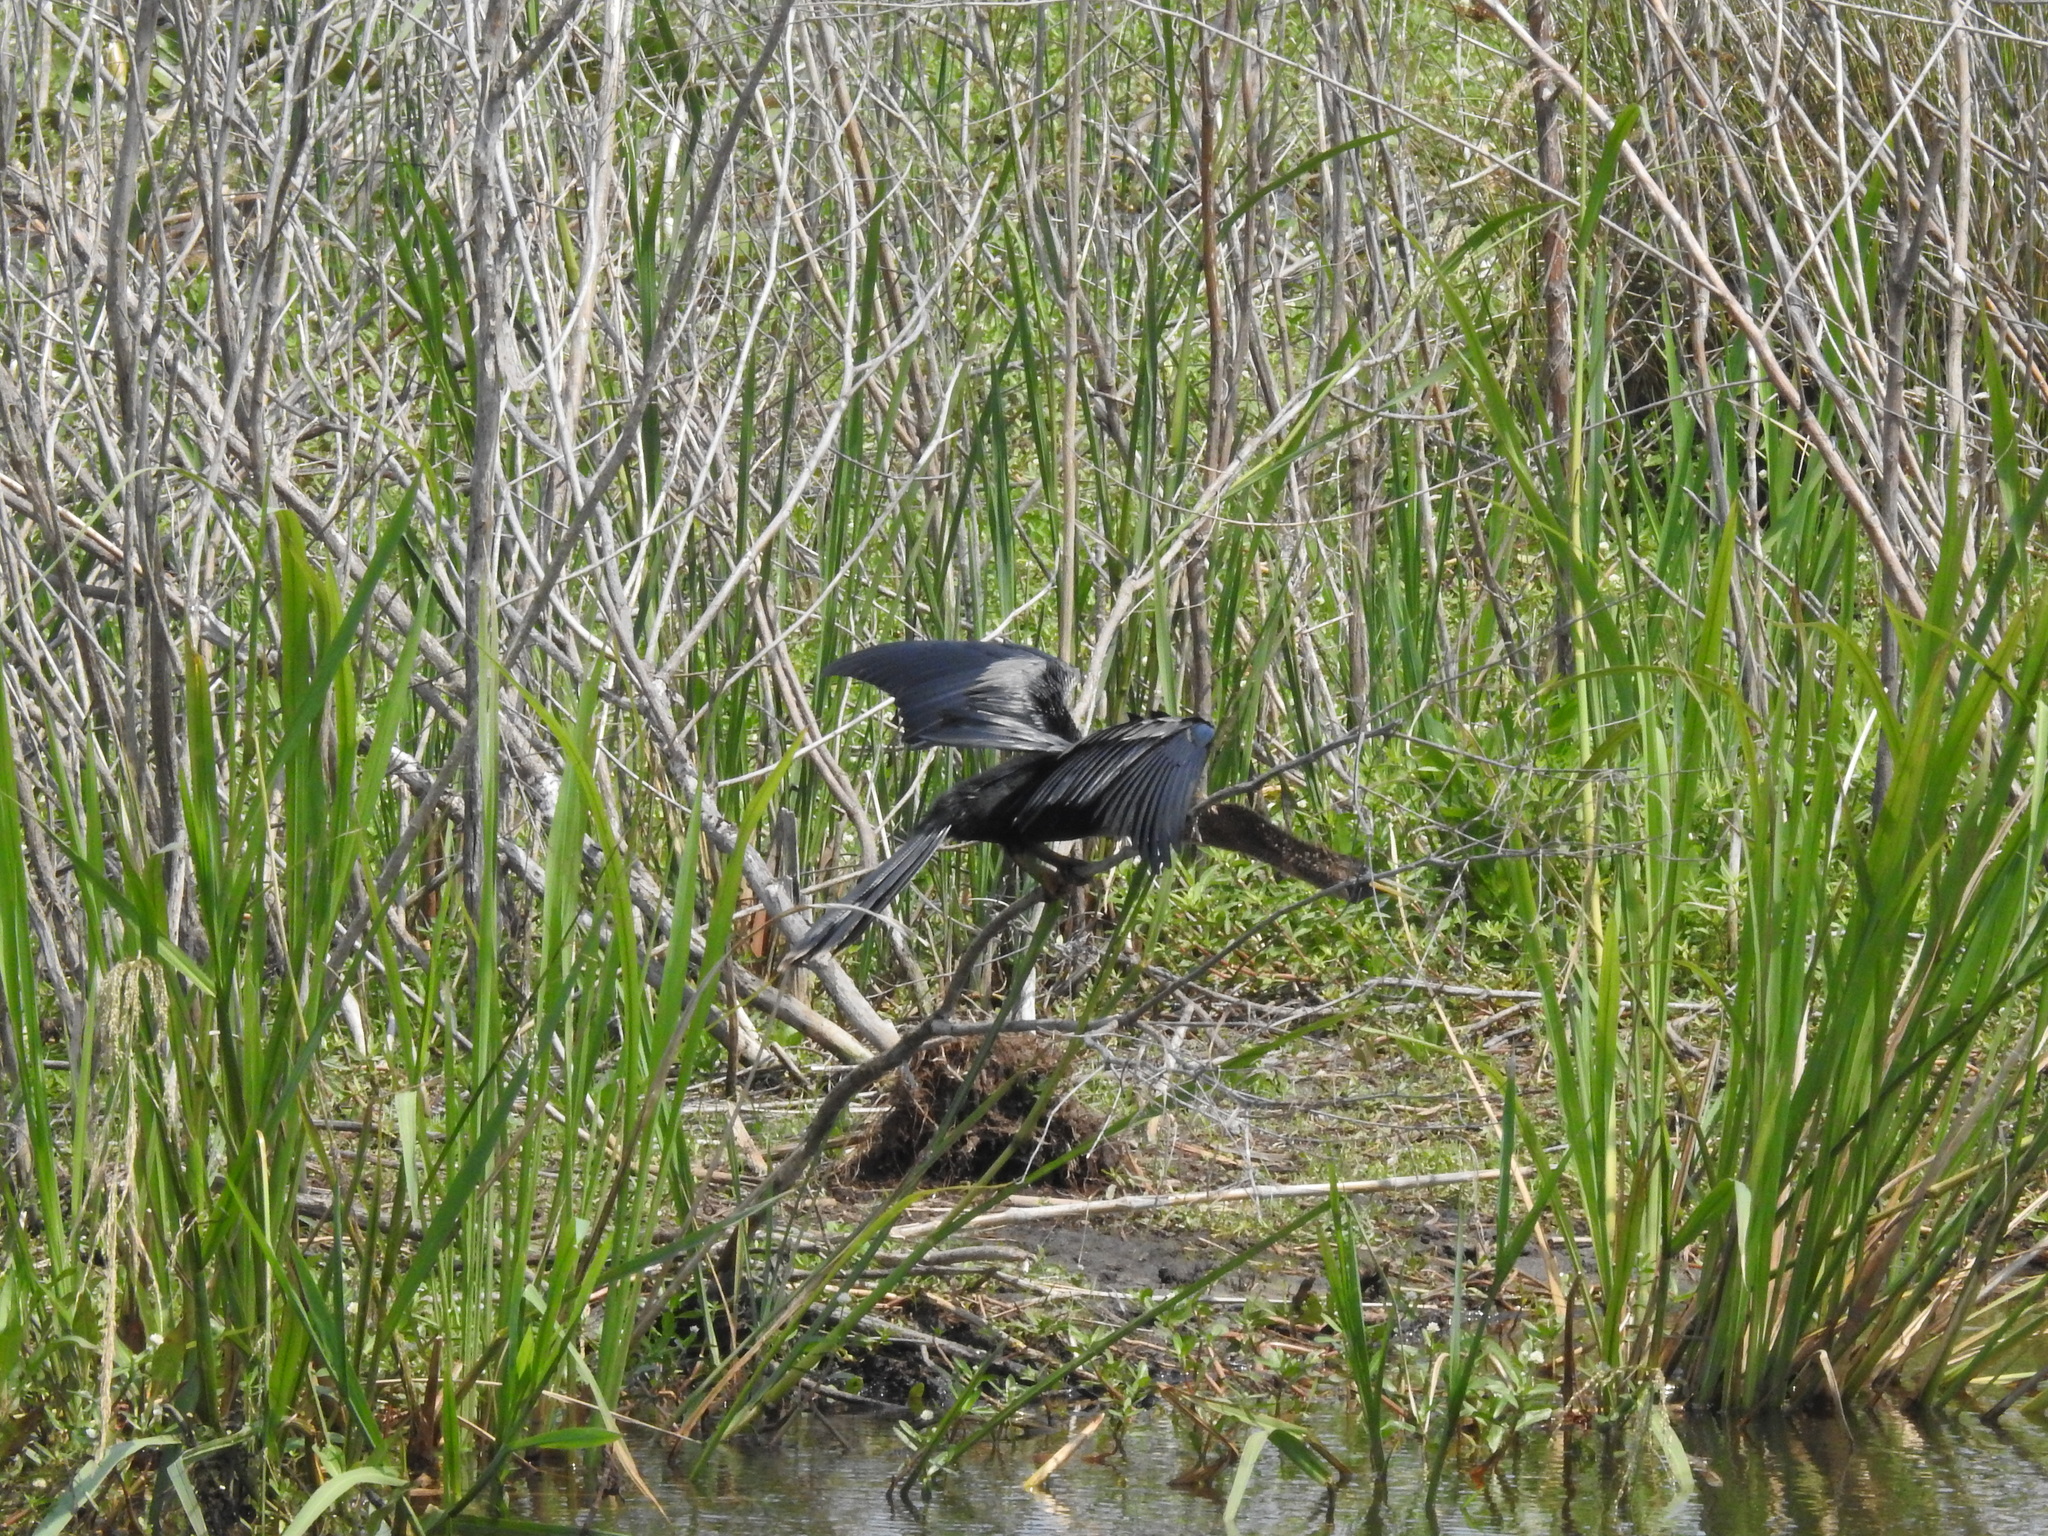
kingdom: Animalia
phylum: Chordata
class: Aves
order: Suliformes
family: Anhingidae
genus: Anhinga
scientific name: Anhinga anhinga
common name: Anhinga
